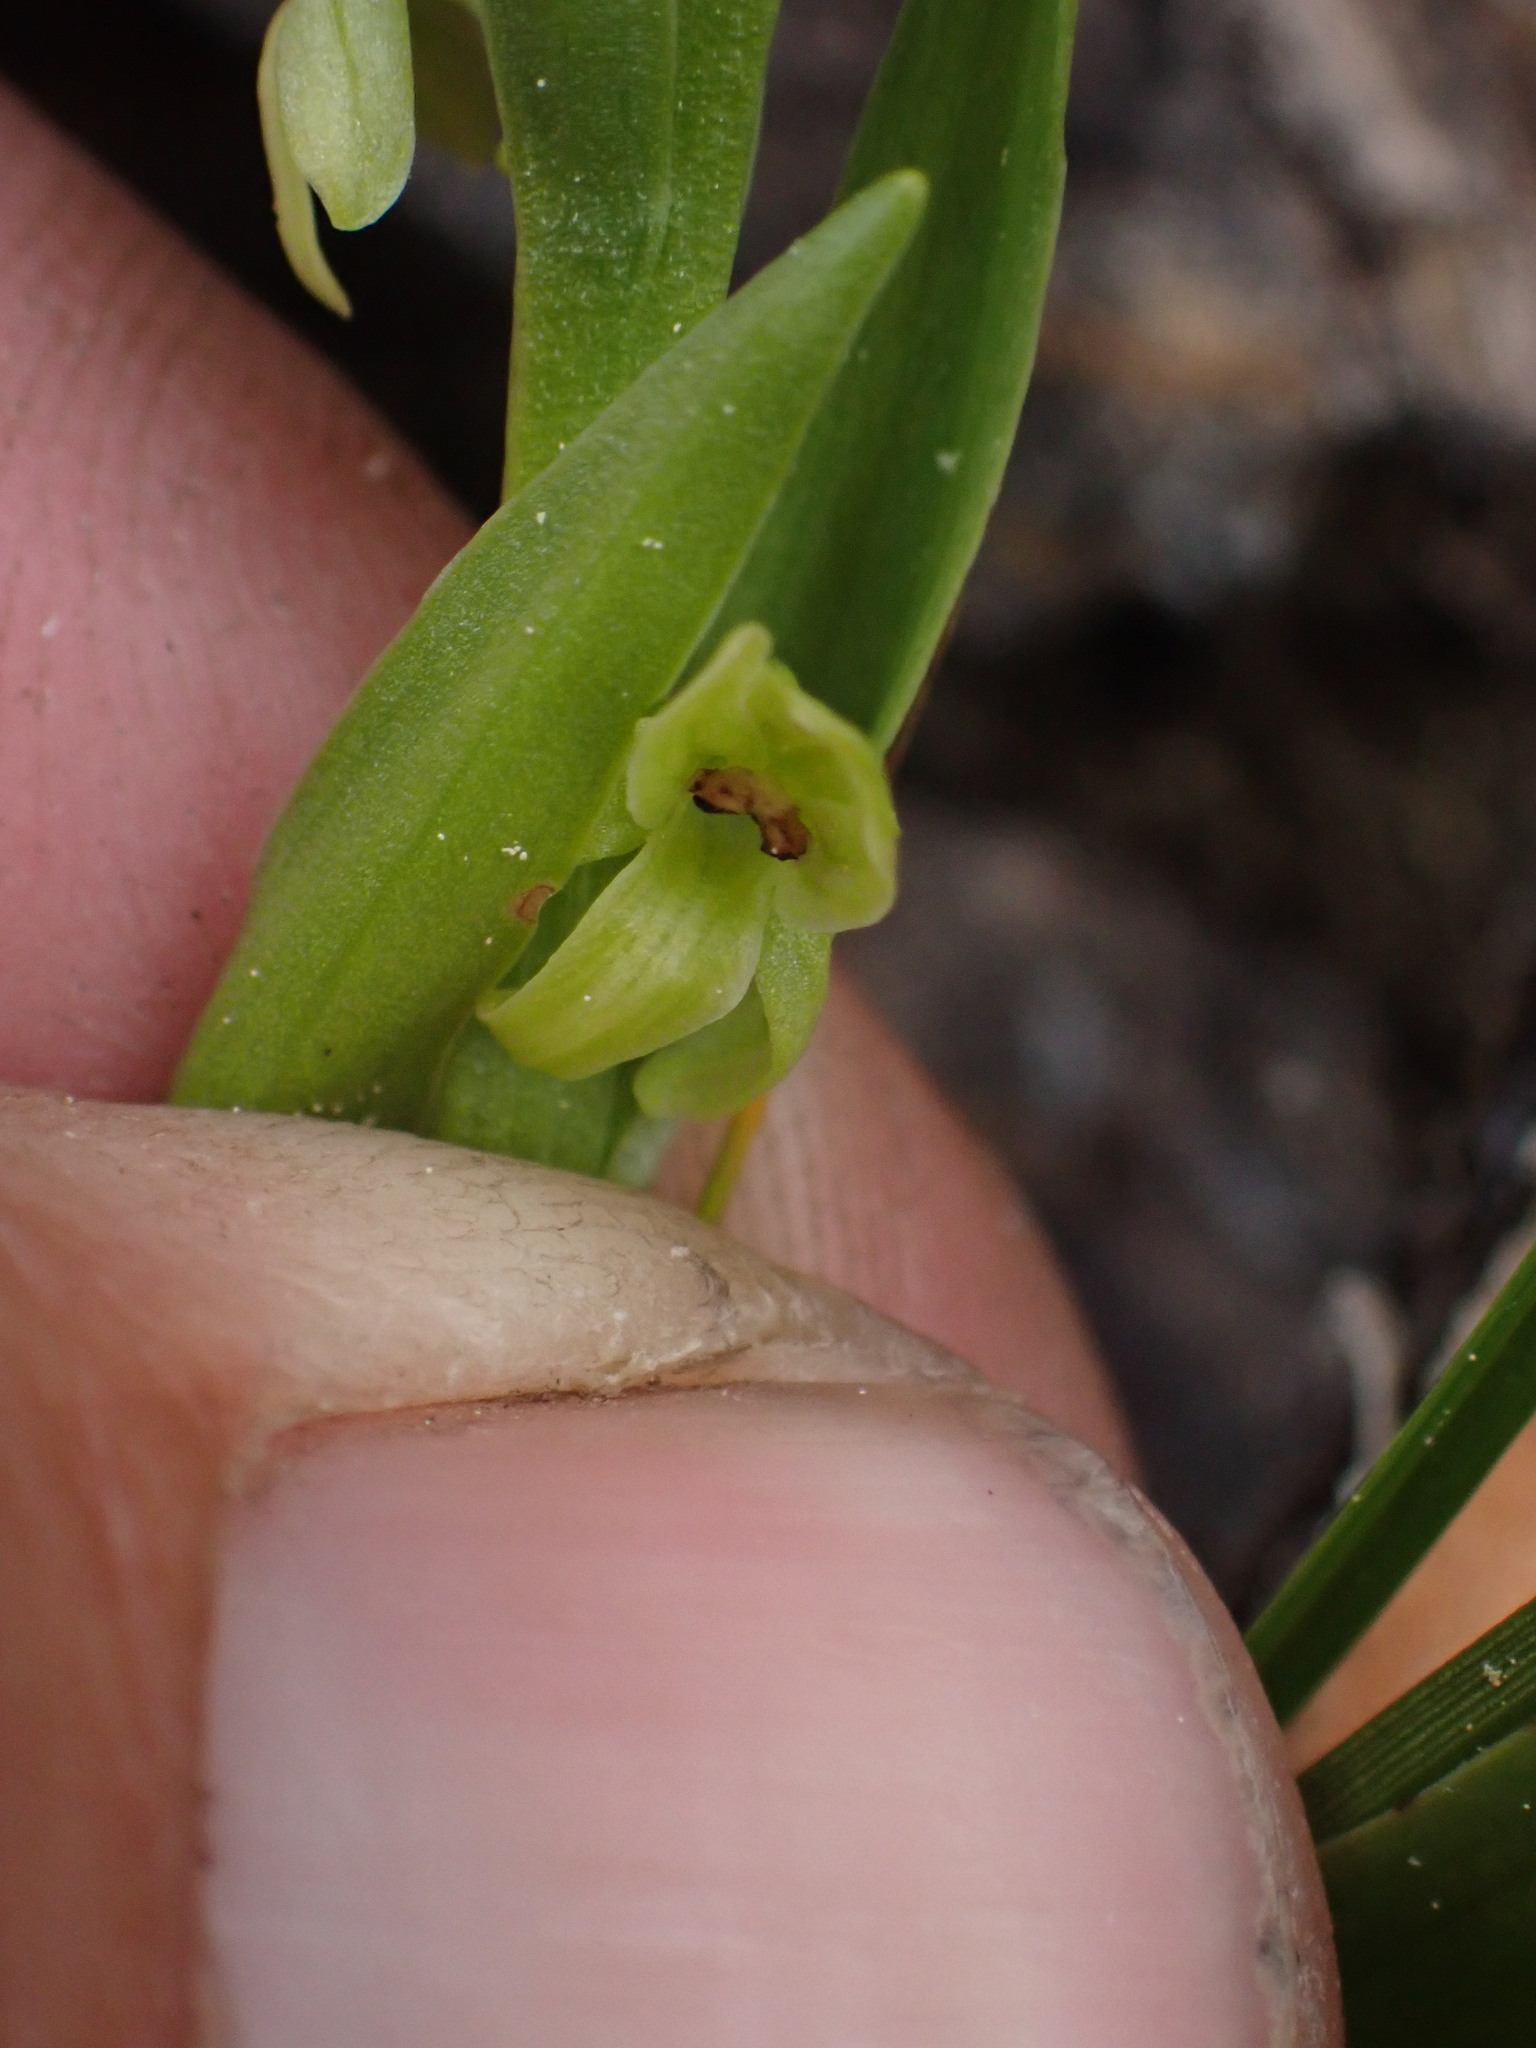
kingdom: Plantae
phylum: Tracheophyta
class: Liliopsida
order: Asparagales
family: Orchidaceae
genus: Platanthera
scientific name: Platanthera huronensis
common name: Fragrant green orchid
